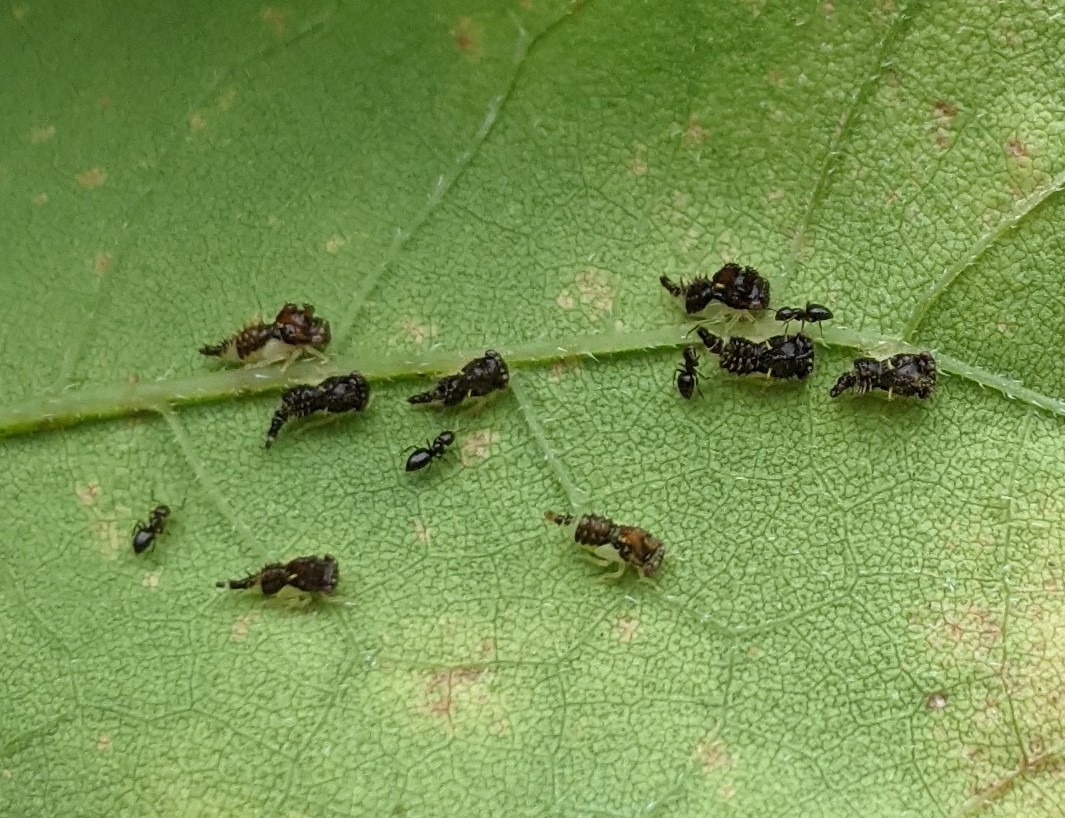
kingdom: Animalia
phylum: Arthropoda
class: Insecta
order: Hymenoptera
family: Formicidae
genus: Brachymyrmex
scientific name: Brachymyrmex patagonicus
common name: Dark rover ant
